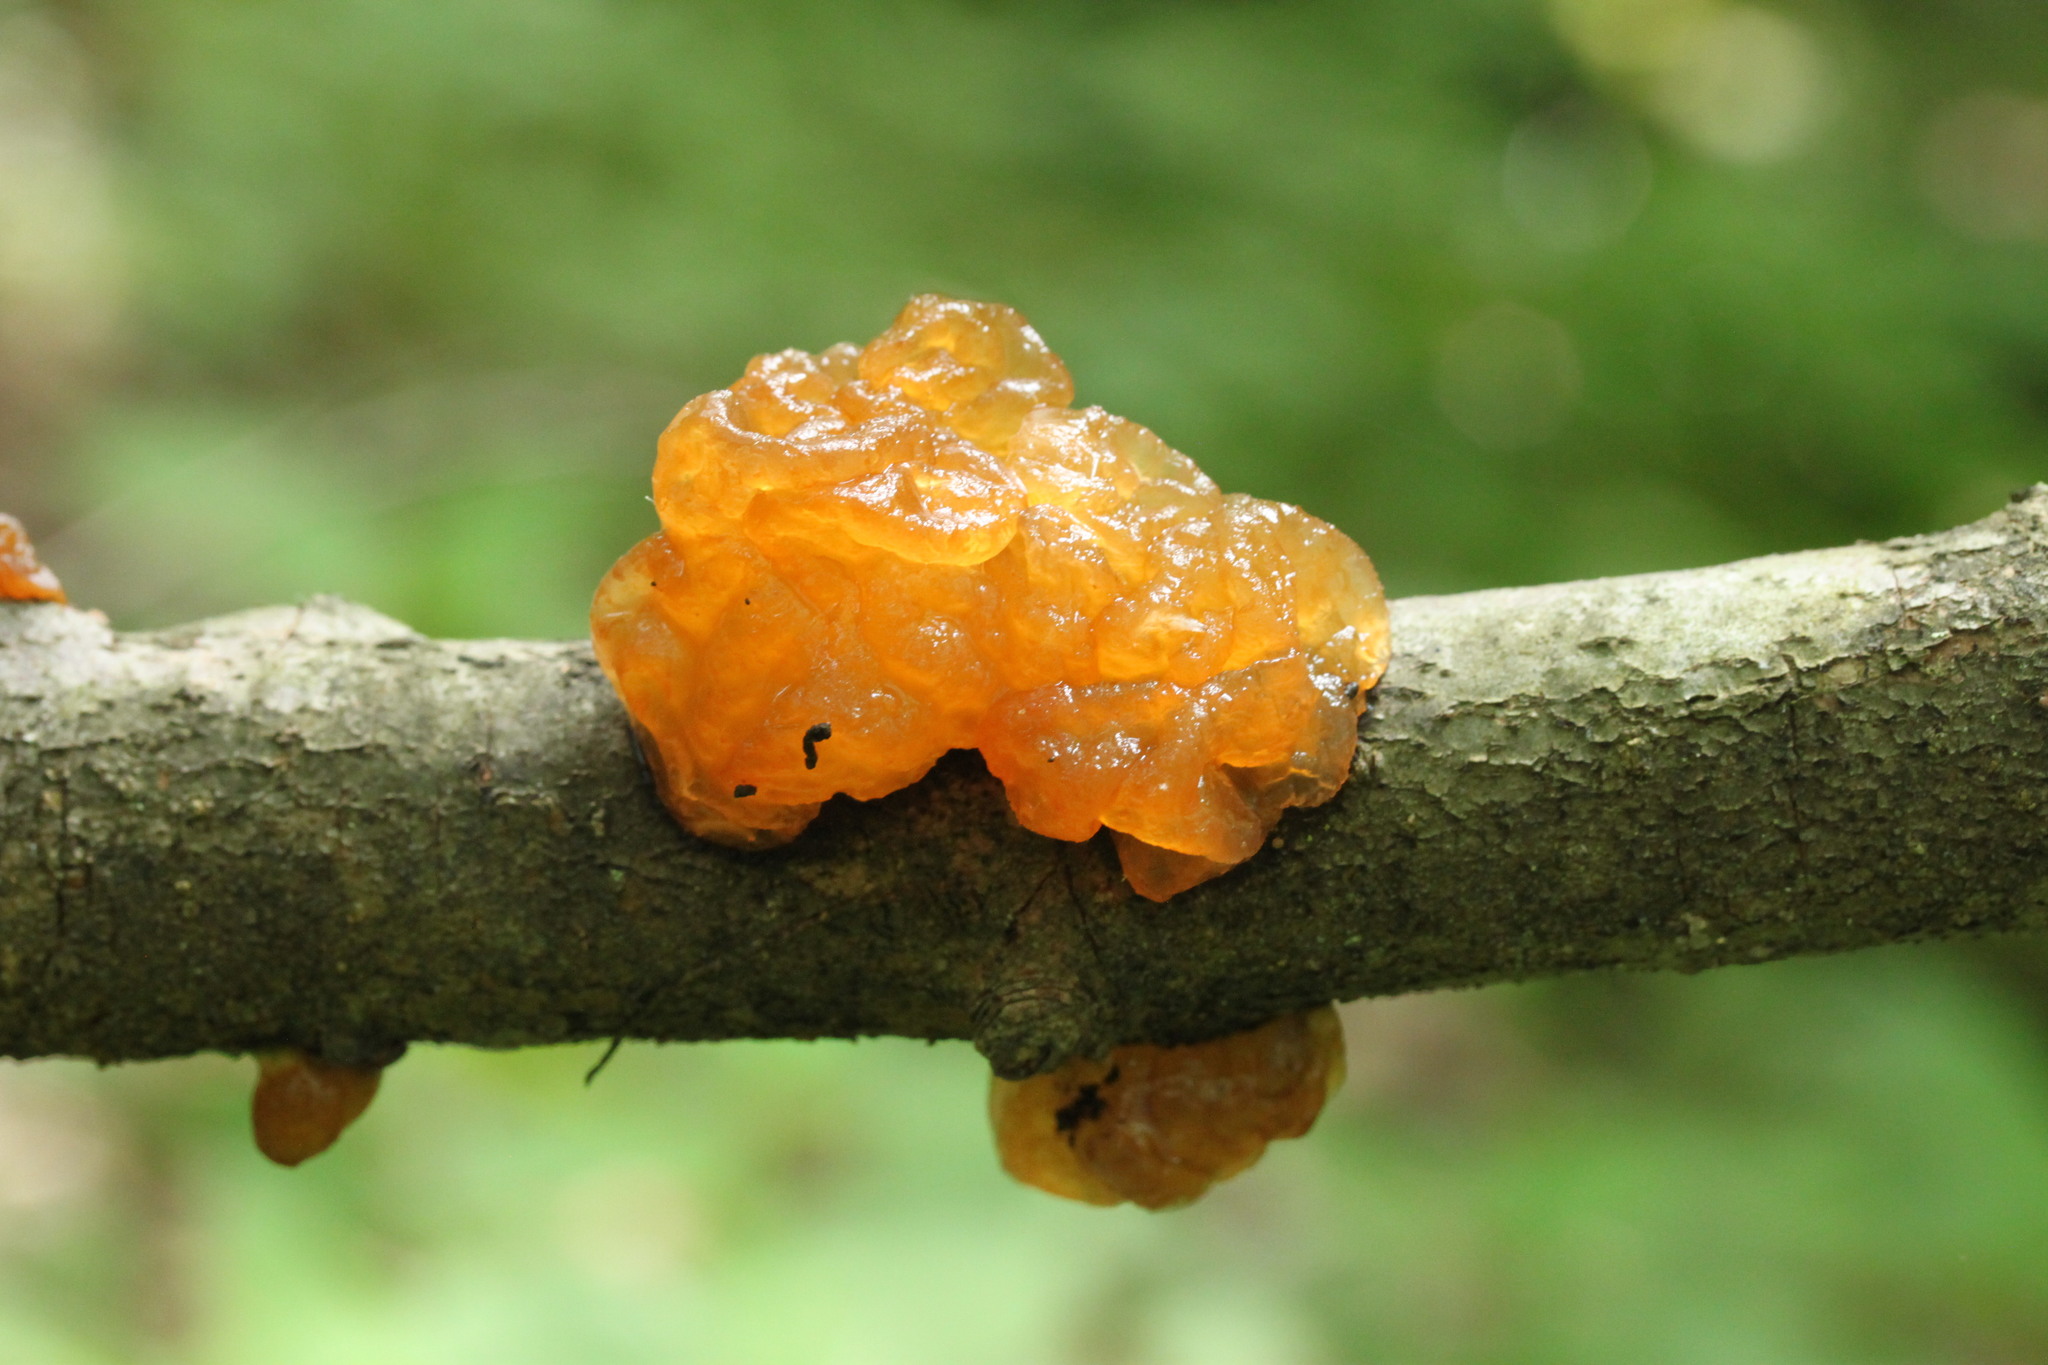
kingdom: Fungi
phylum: Basidiomycota
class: Tremellomycetes
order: Tremellales
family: Tremellaceae
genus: Tremella
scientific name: Tremella mesenterica
